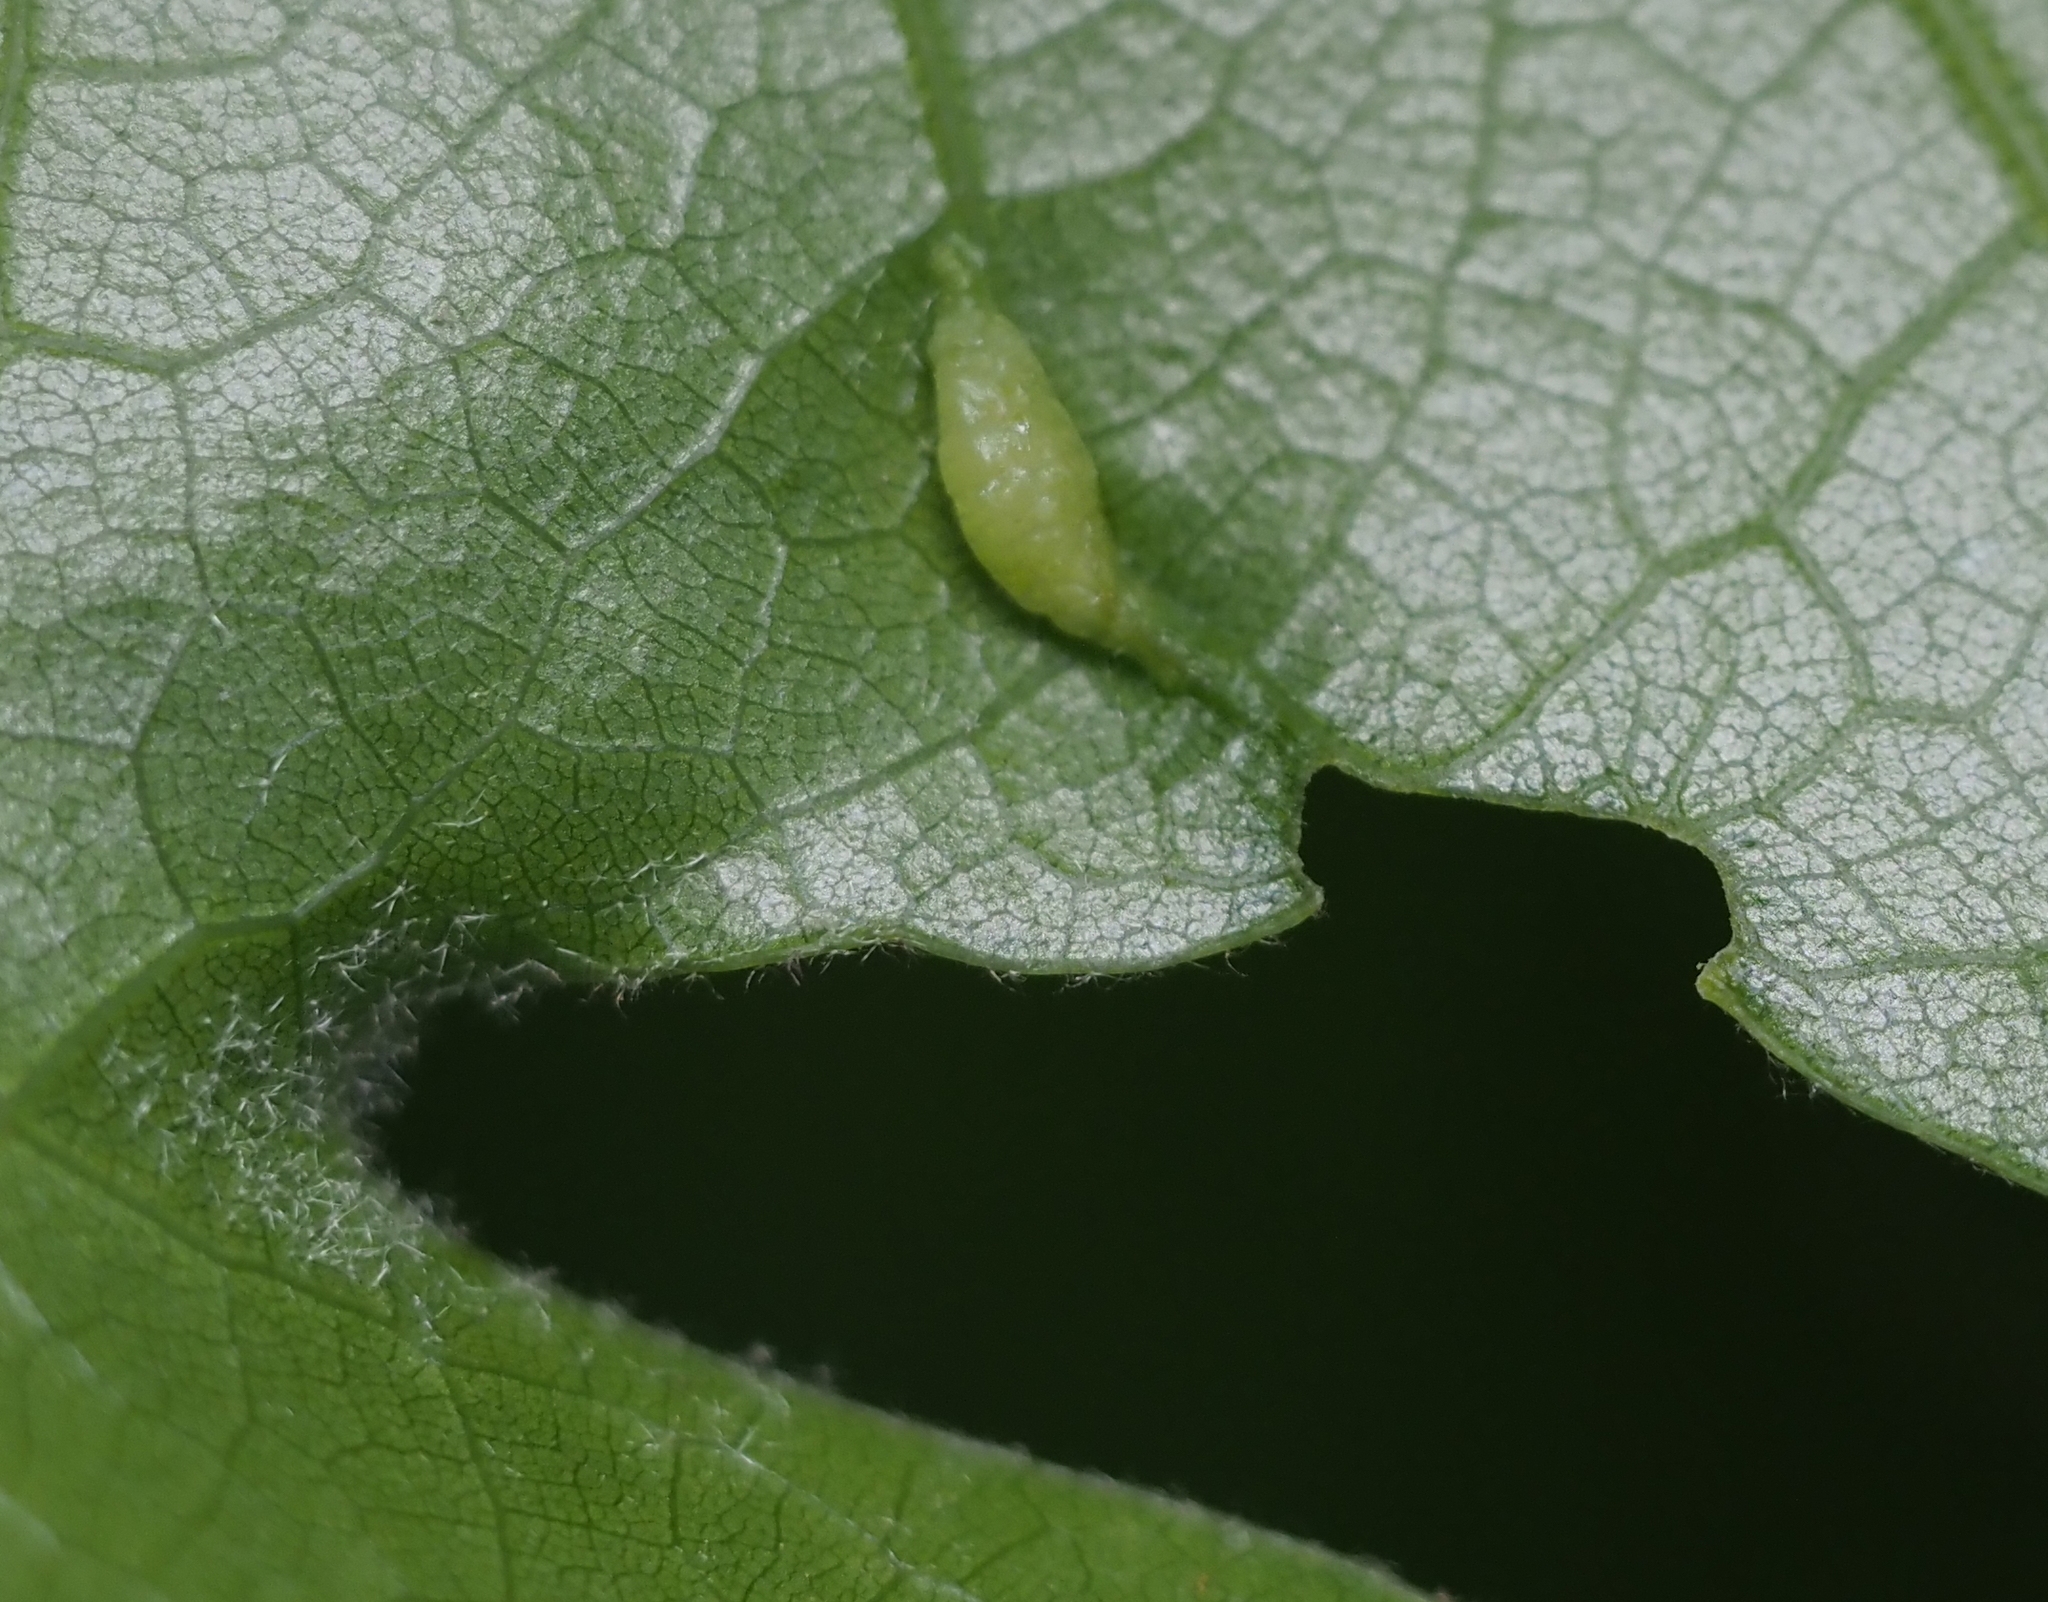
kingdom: Animalia
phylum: Arthropoda
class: Insecta
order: Diptera
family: Cecidomyiidae
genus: Macrodiplosis
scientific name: Macrodiplosis majalis
